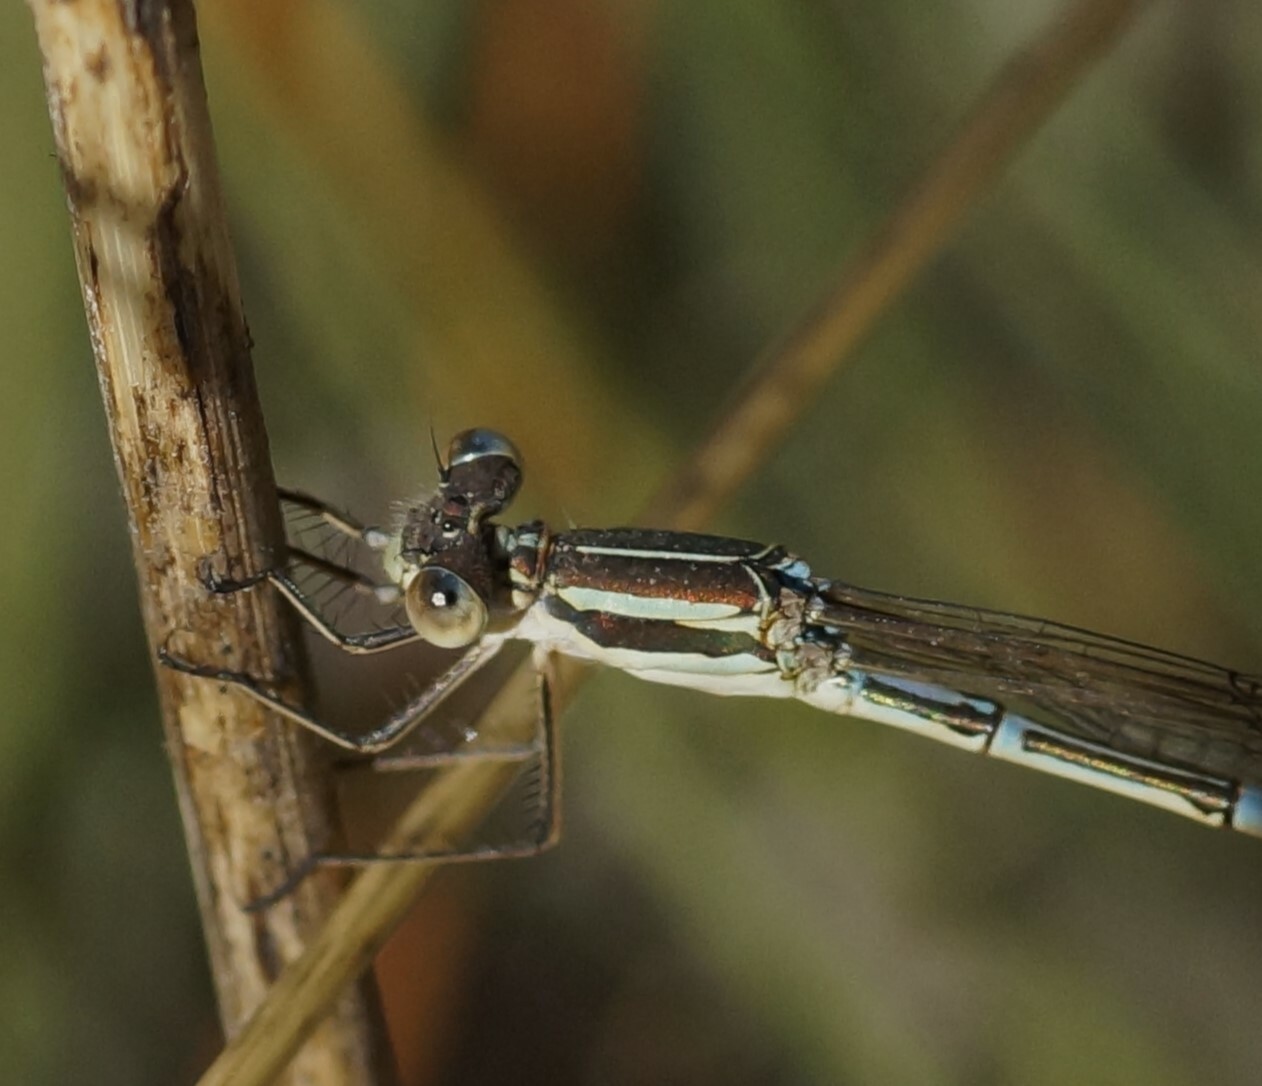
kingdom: Animalia
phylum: Arthropoda
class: Insecta
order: Odonata
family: Lestidae
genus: Austrolestes
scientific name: Austrolestes analis
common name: Slender ringtail
